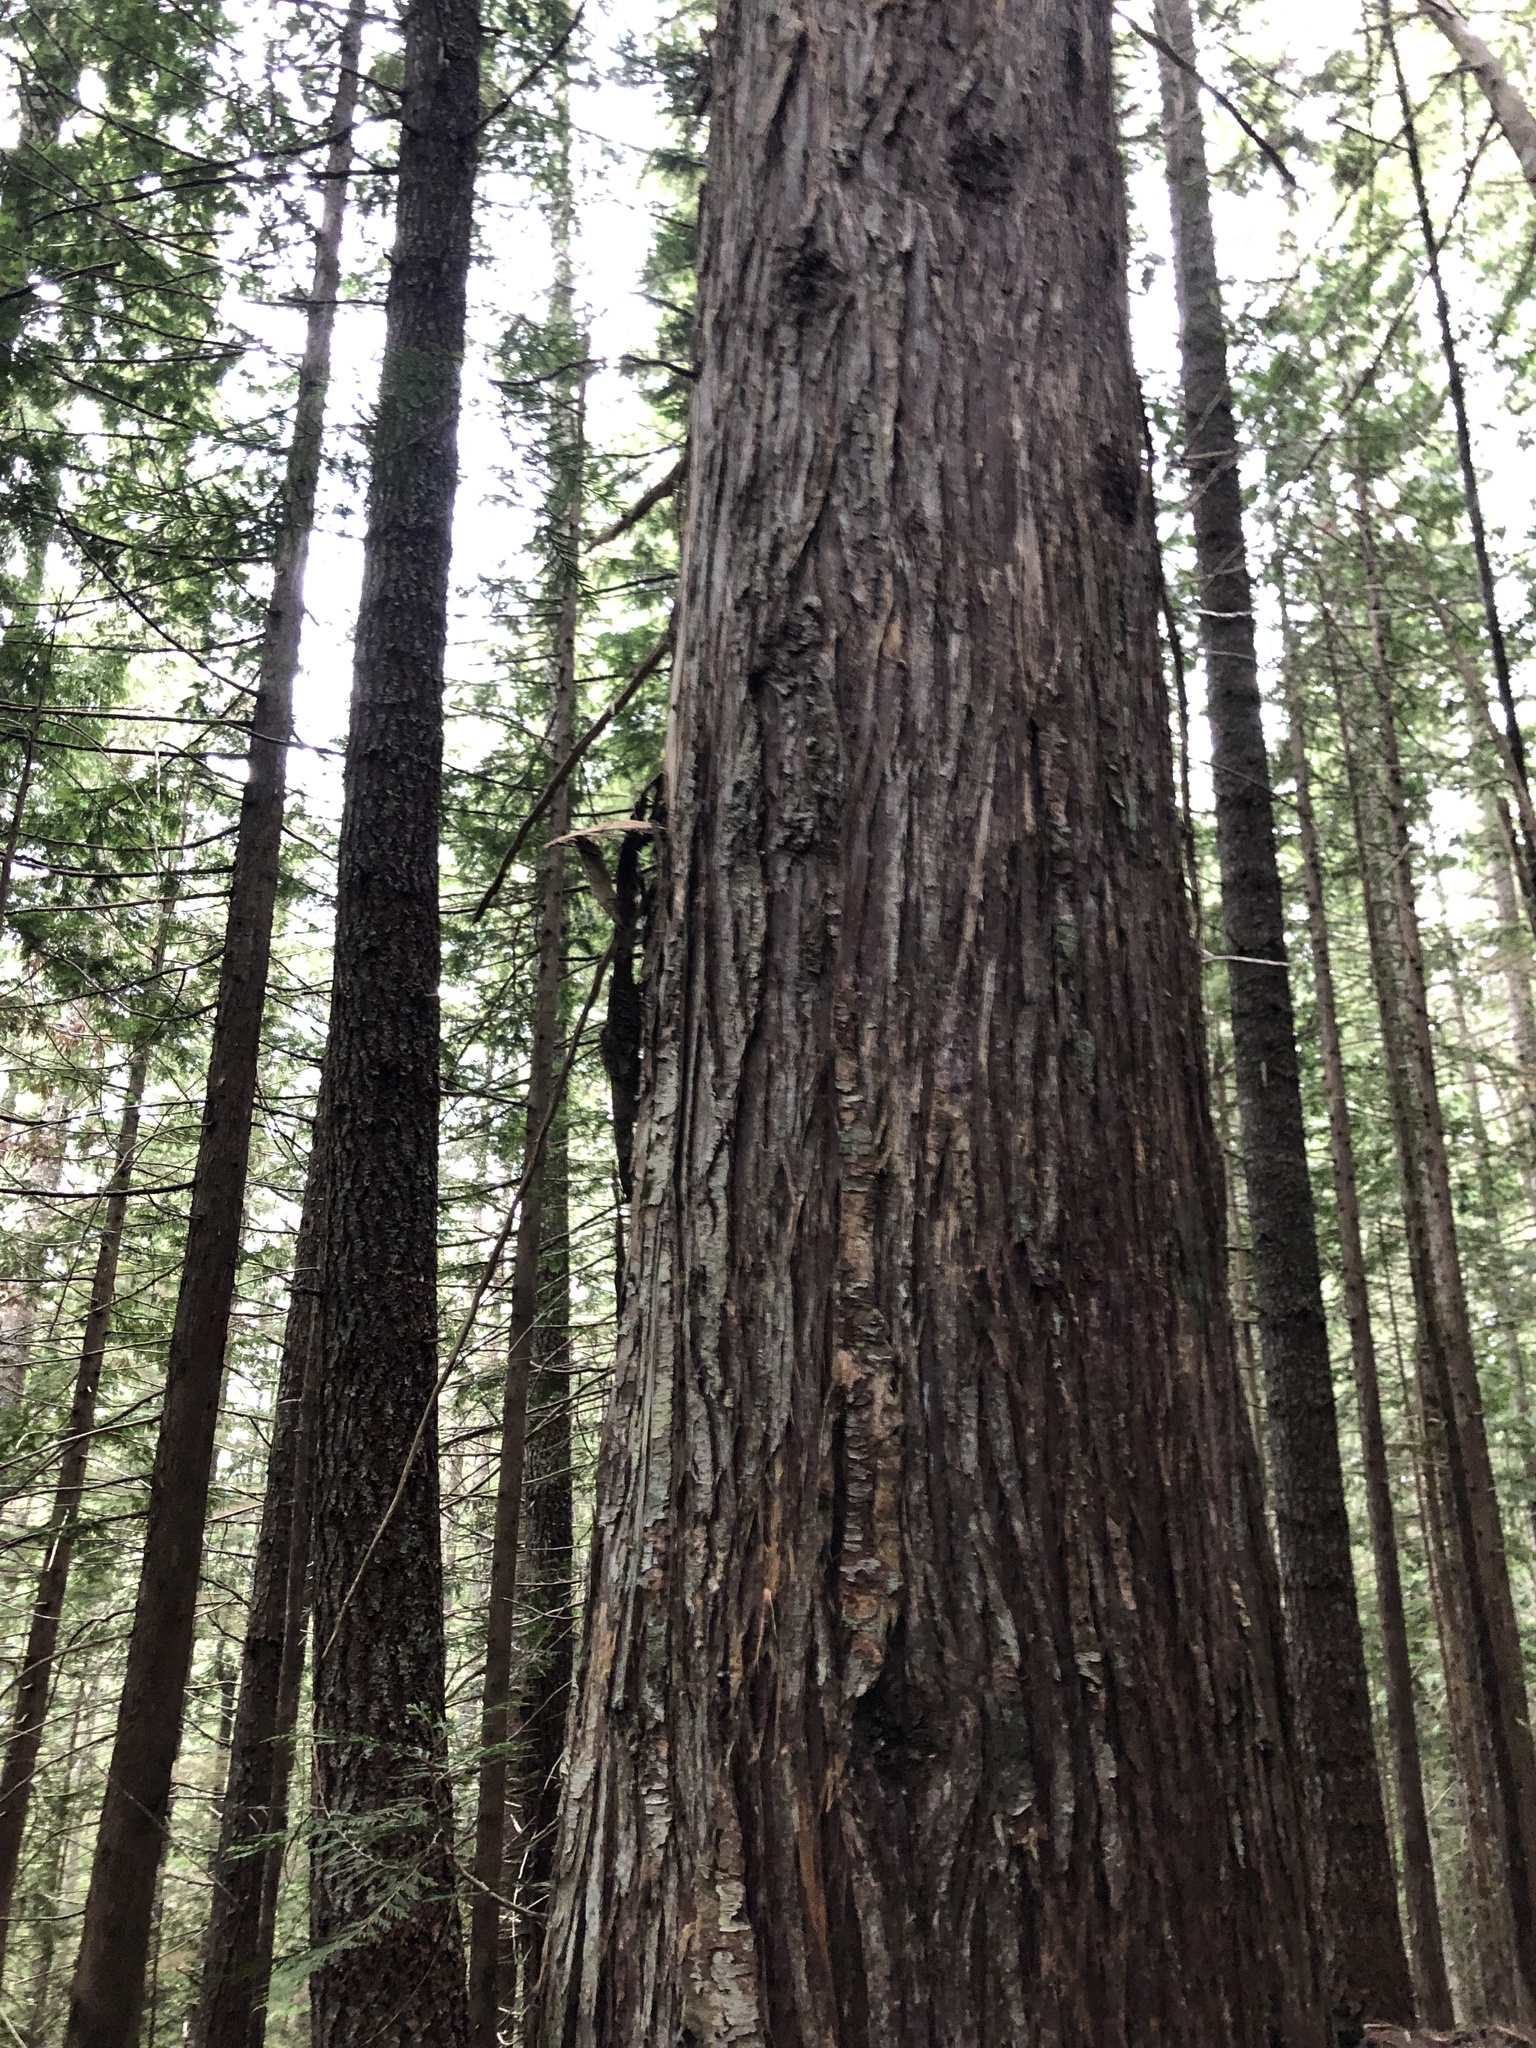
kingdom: Plantae
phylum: Tracheophyta
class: Pinopsida
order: Pinales
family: Cupressaceae
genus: Thuja
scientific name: Thuja plicata
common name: Western red-cedar
